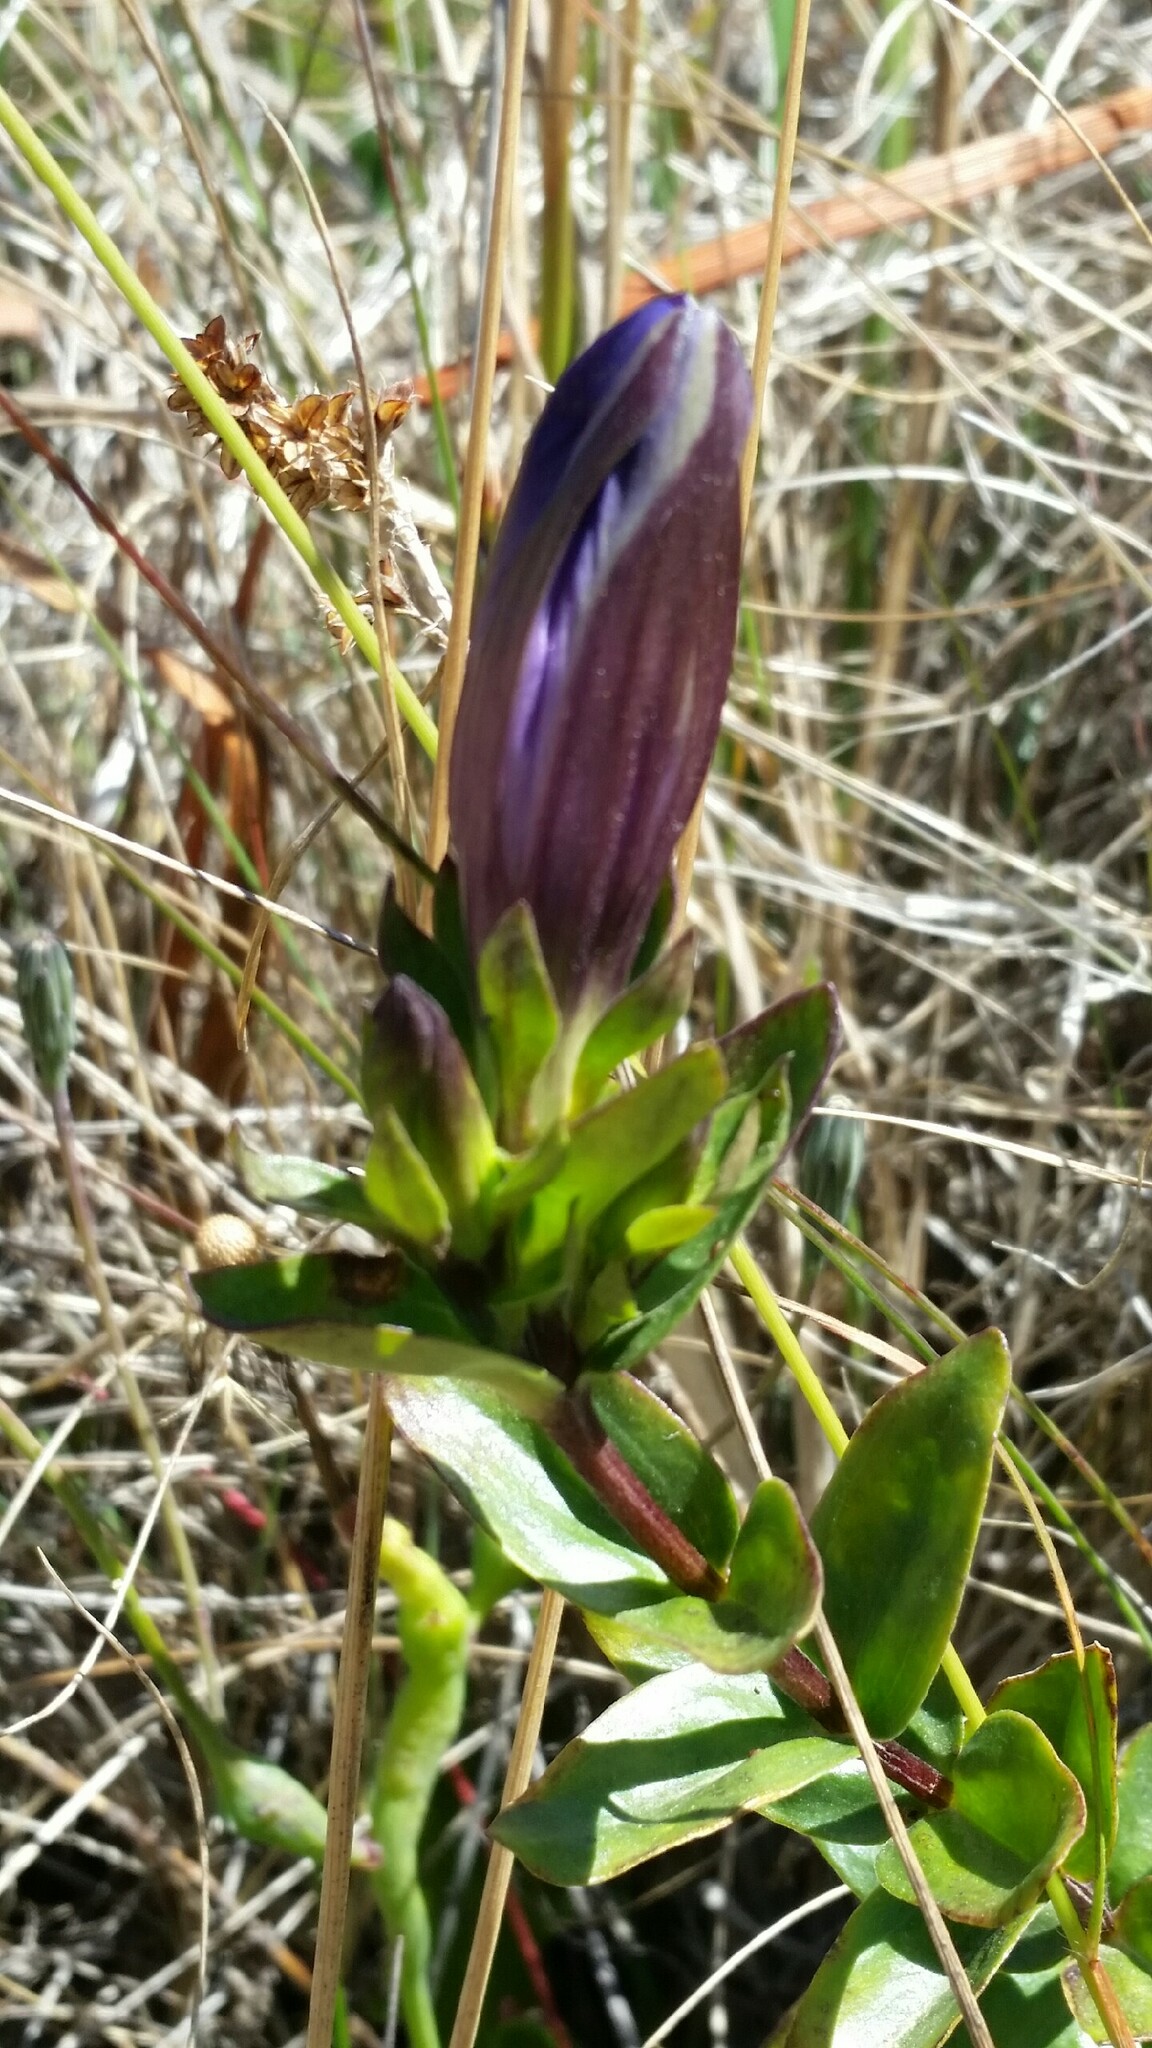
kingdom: Plantae
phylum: Tracheophyta
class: Magnoliopsida
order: Gentianales
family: Gentianaceae
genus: Gentiana
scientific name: Gentiana affinis
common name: Rocky mountain gentian
